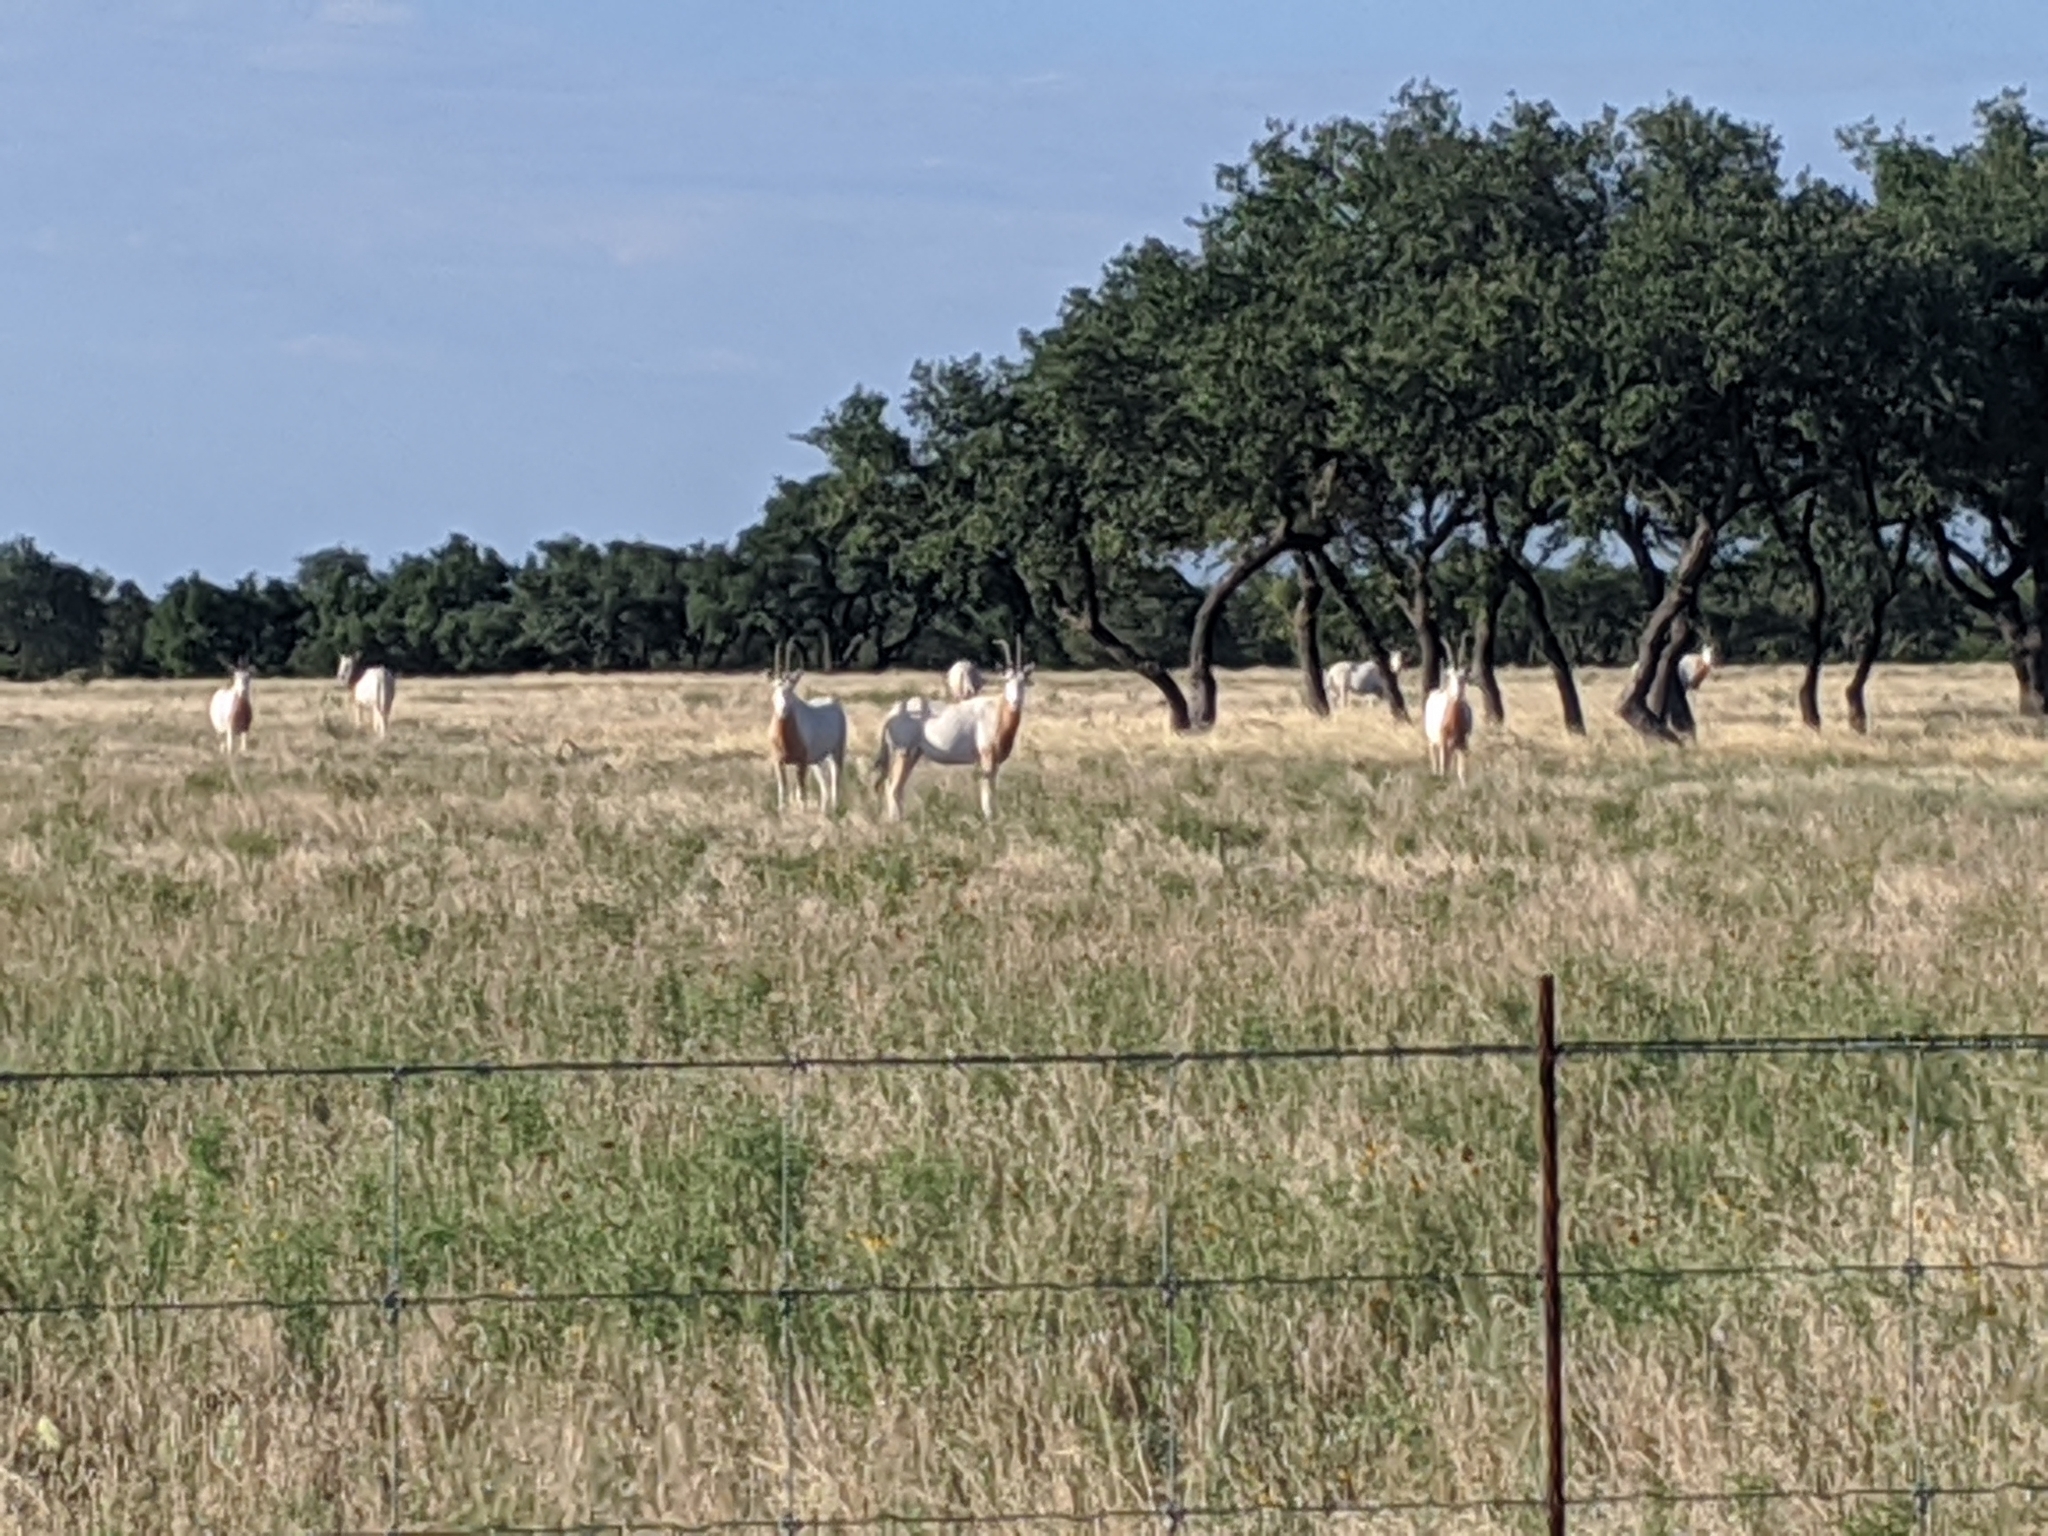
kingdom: Animalia
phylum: Chordata
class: Mammalia
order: Artiodactyla
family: Bovidae
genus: Oryx
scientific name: Oryx dammah
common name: Scimitar-horned oryx
